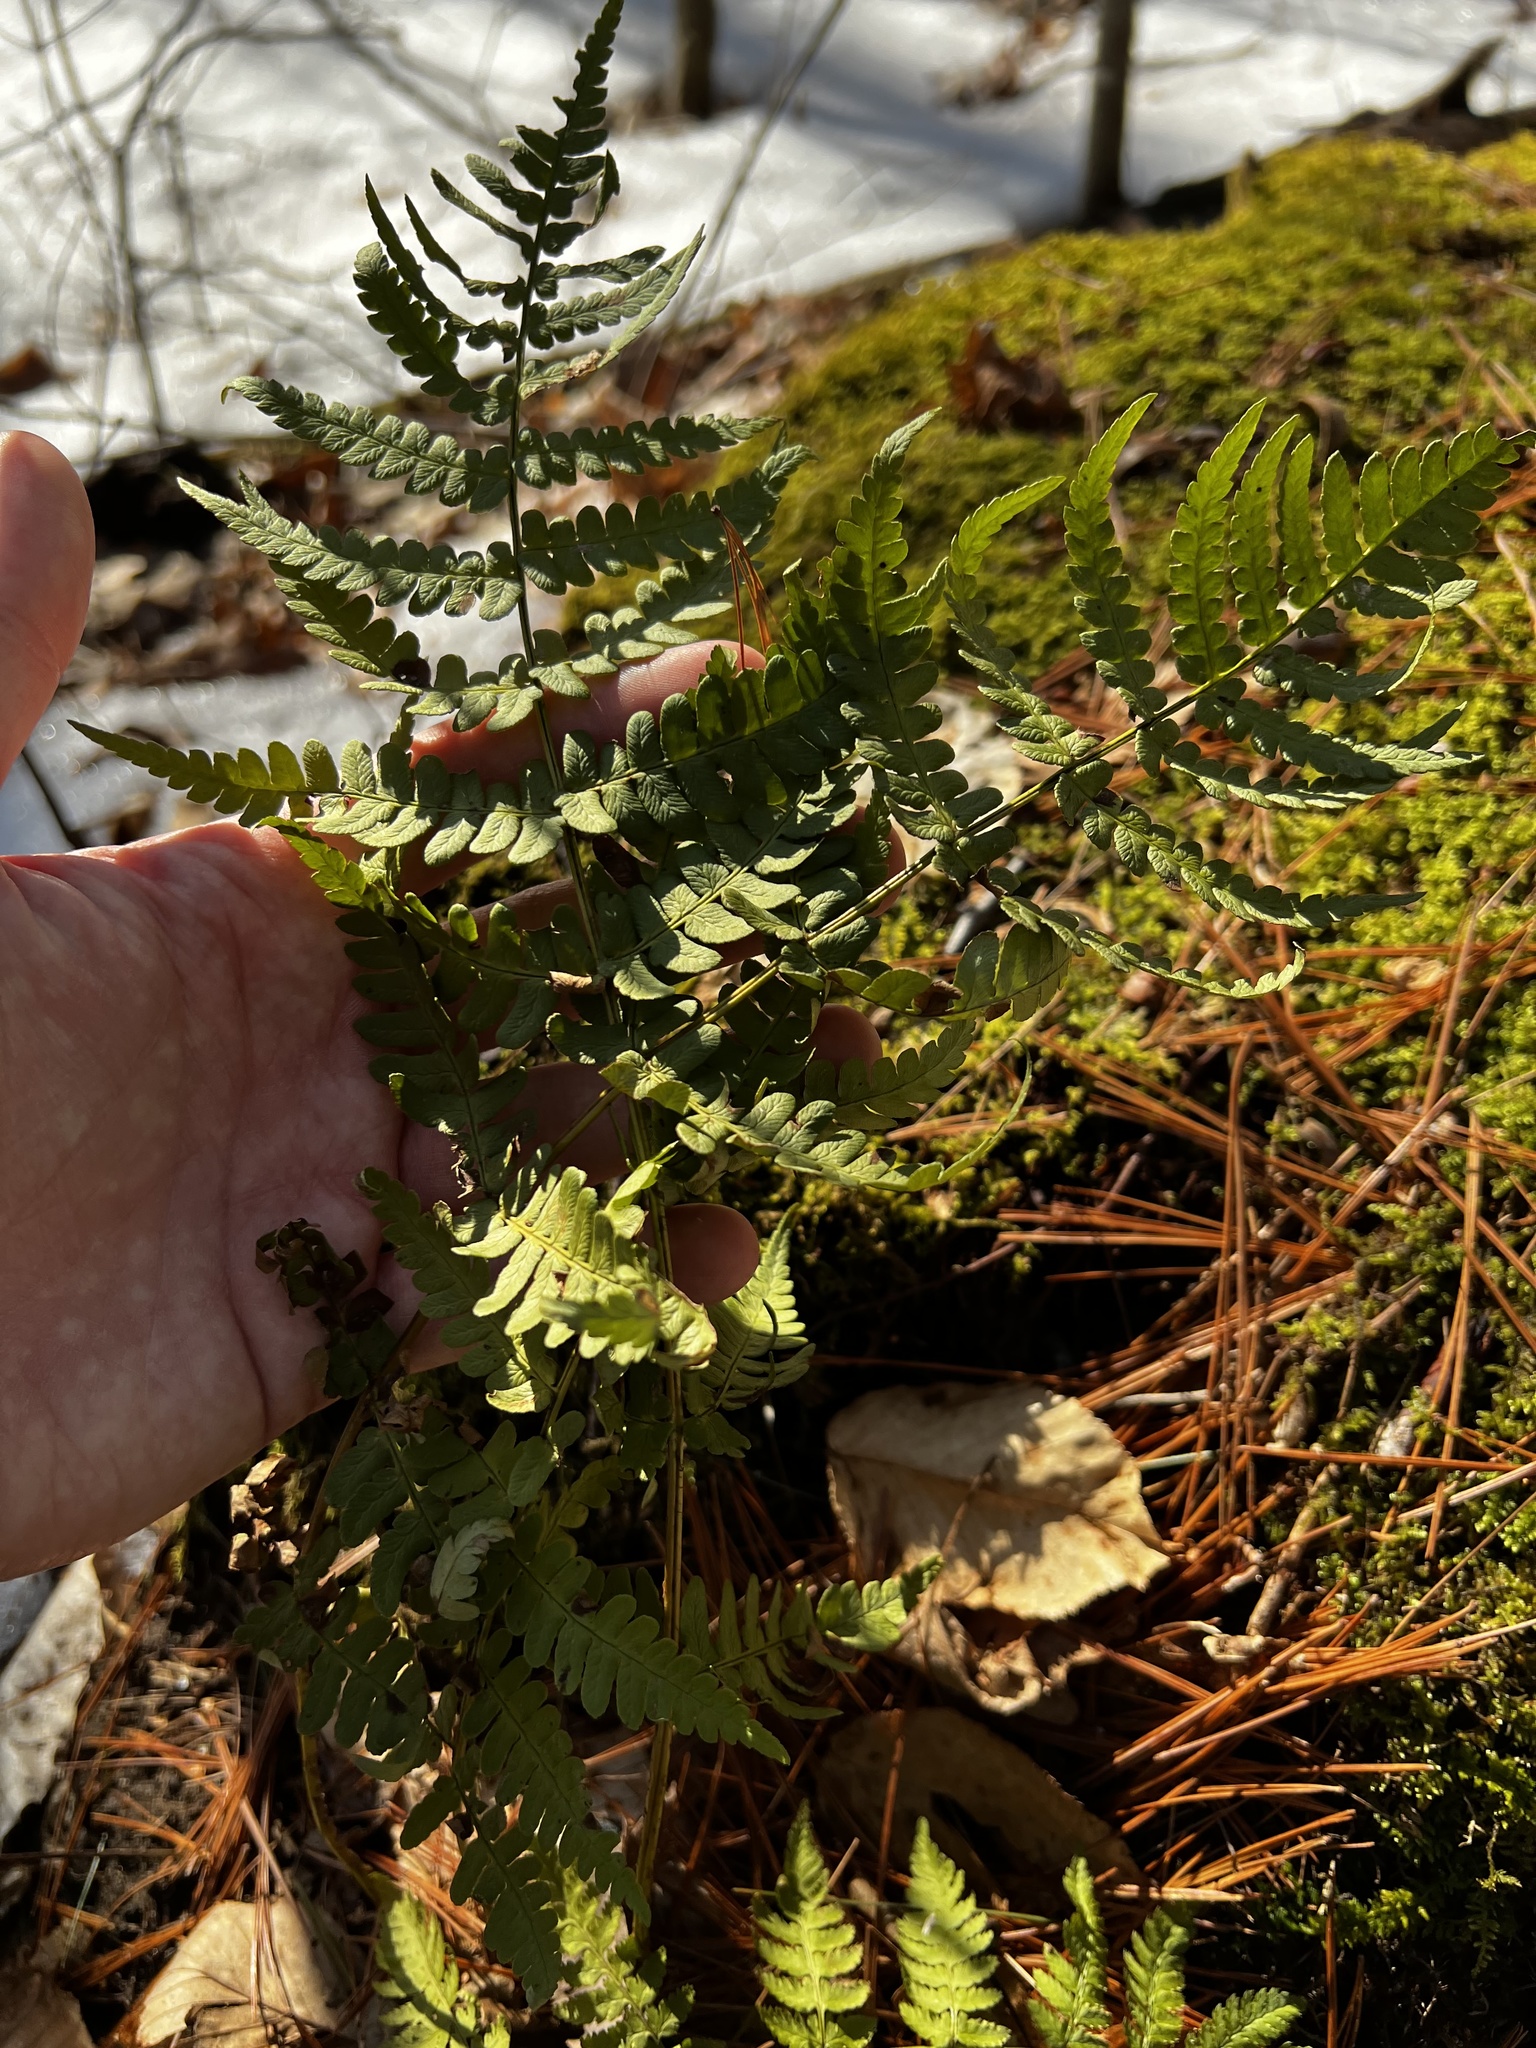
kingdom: Plantae
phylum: Tracheophyta
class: Polypodiopsida
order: Polypodiales
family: Dryopteridaceae
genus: Dryopteris
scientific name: Dryopteris marginalis
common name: Marginal wood fern
